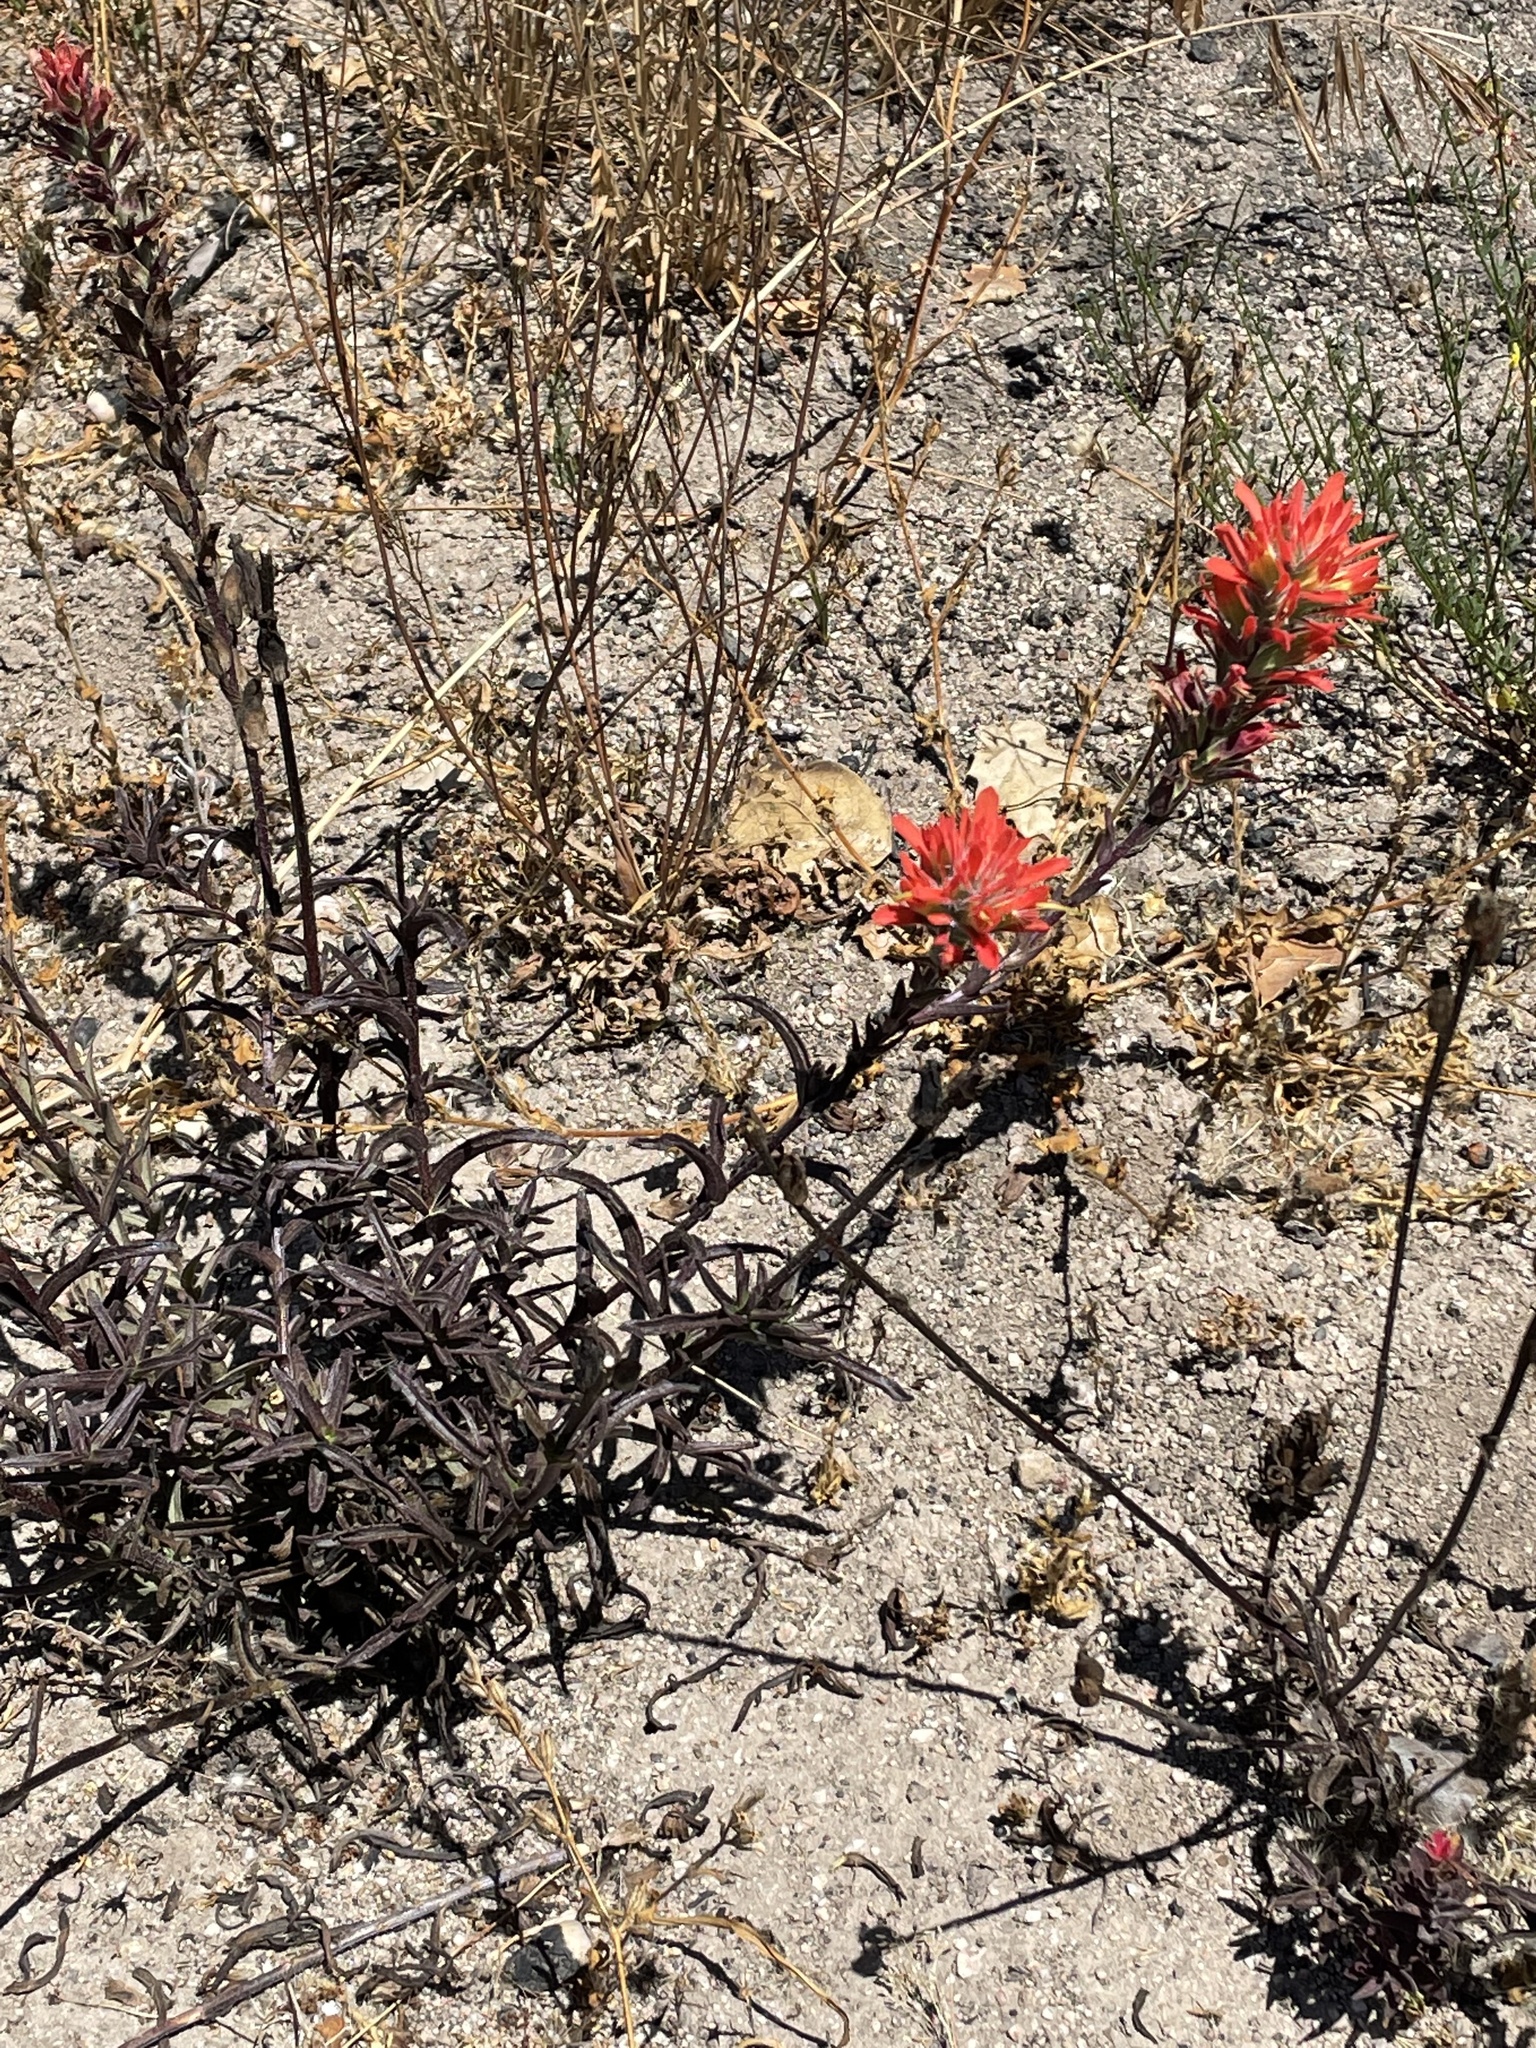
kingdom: Plantae
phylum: Tracheophyta
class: Magnoliopsida
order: Lamiales
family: Orobanchaceae
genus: Castilleja
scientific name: Castilleja affinis
